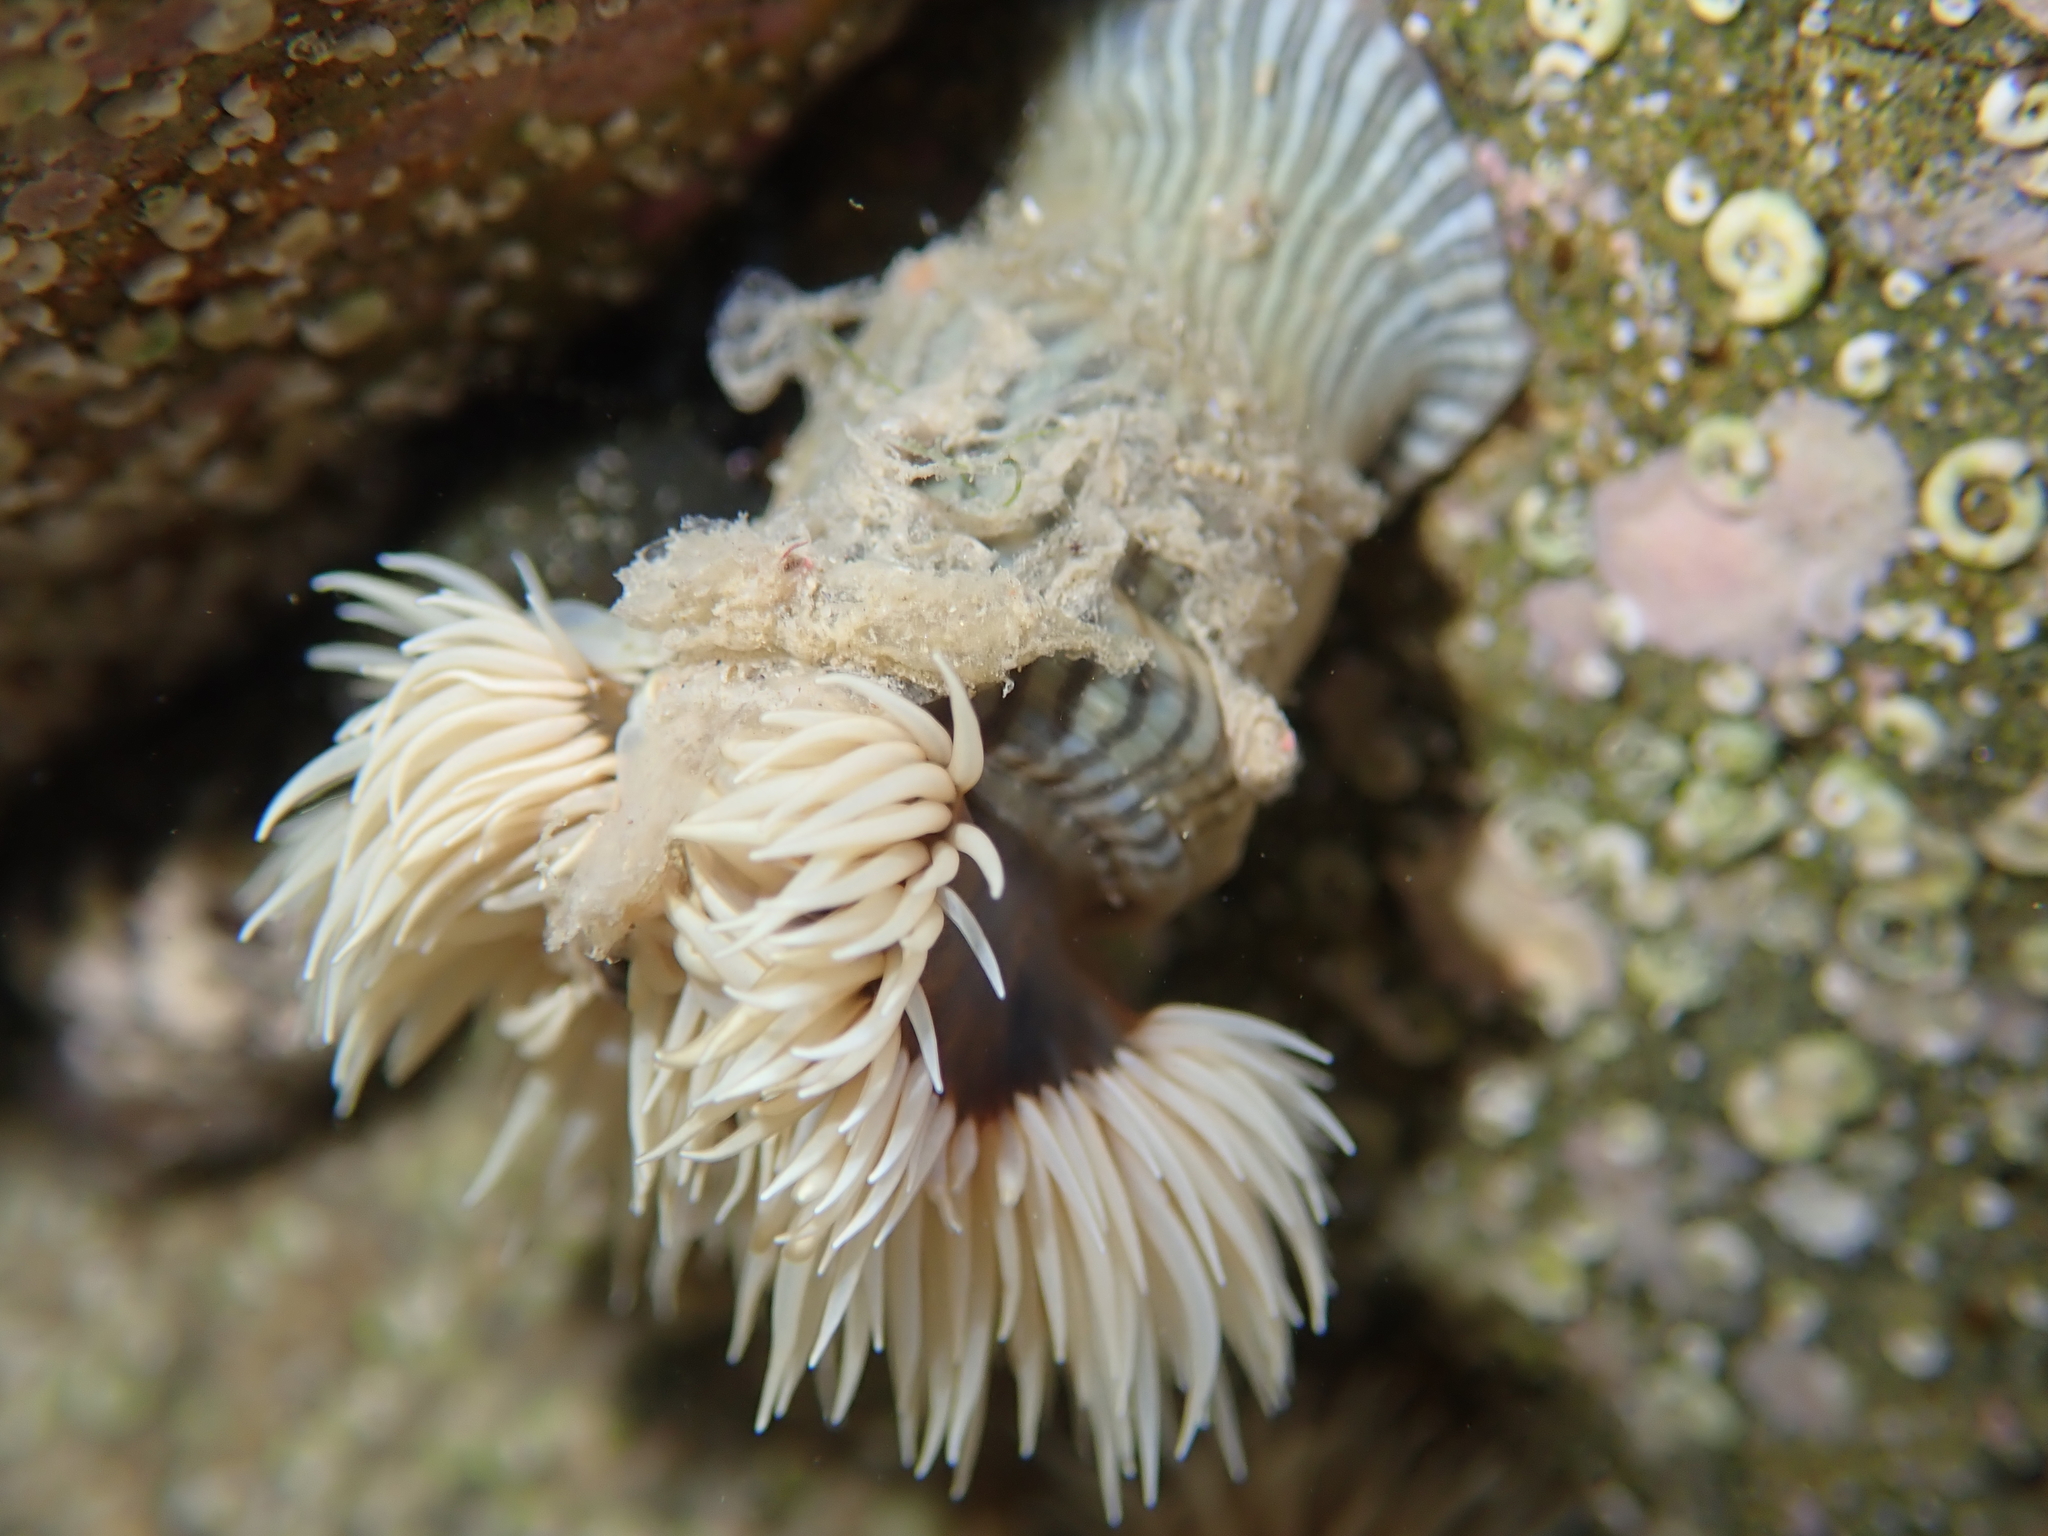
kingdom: Animalia
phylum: Cnidaria
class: Anthozoa
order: Actiniaria
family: Diadumenidae
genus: Diadumene
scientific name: Diadumene neozelanica
